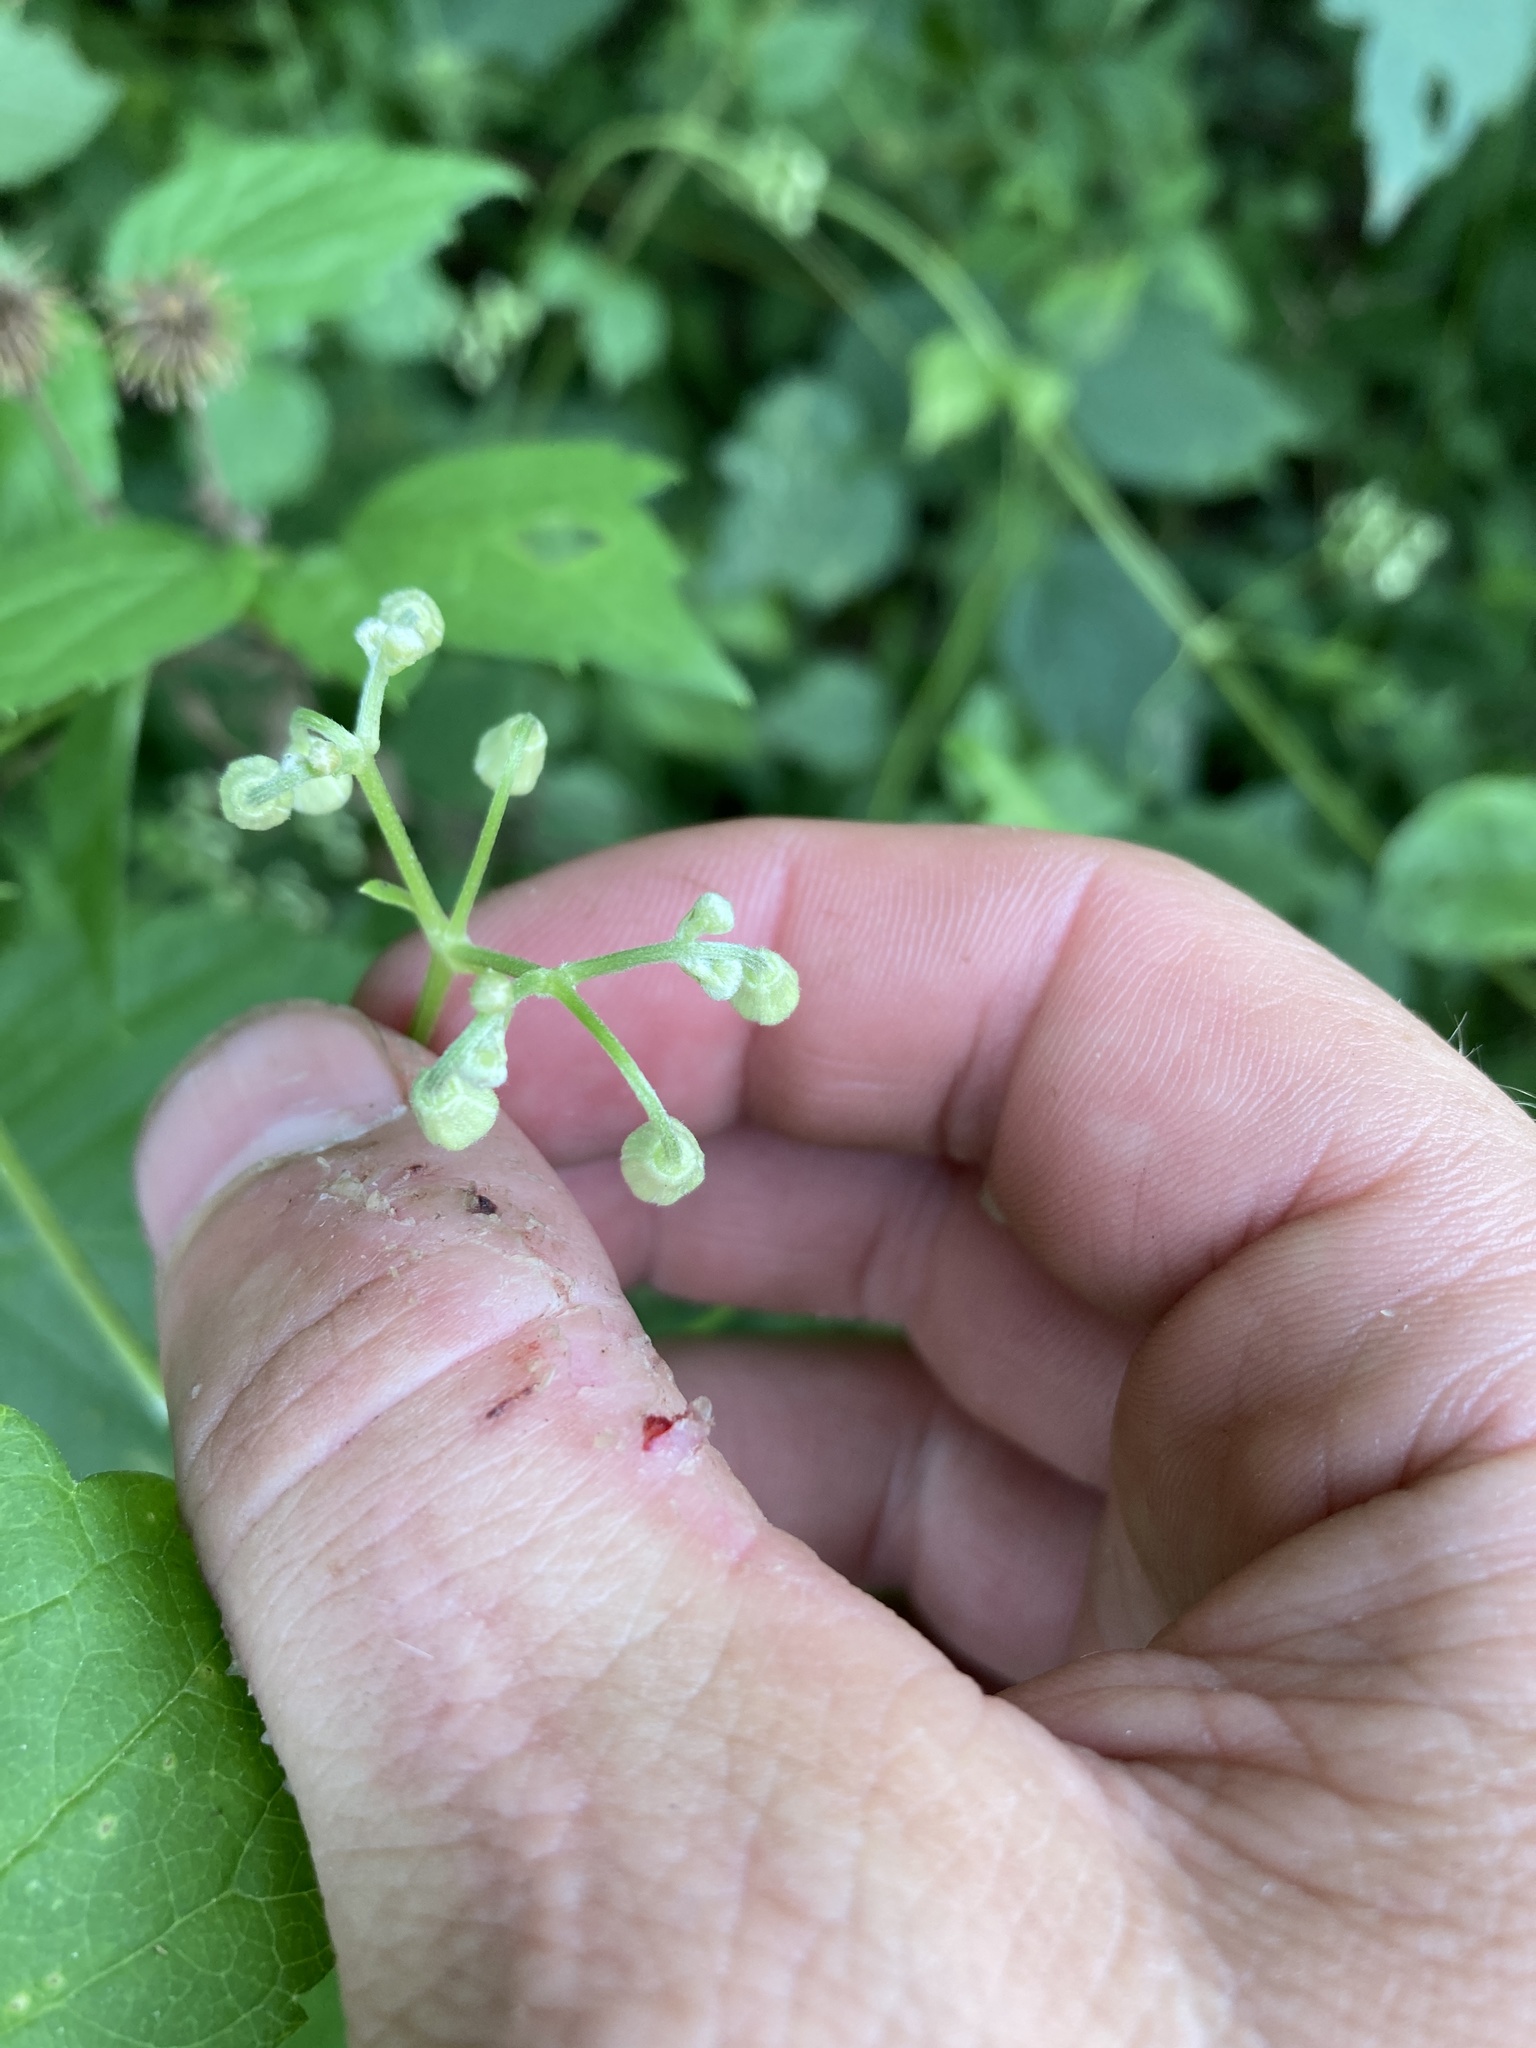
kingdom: Plantae
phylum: Tracheophyta
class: Magnoliopsida
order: Ranunculales
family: Ranunculaceae
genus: Clematis
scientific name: Clematis virginiana
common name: Virgin's-bower
